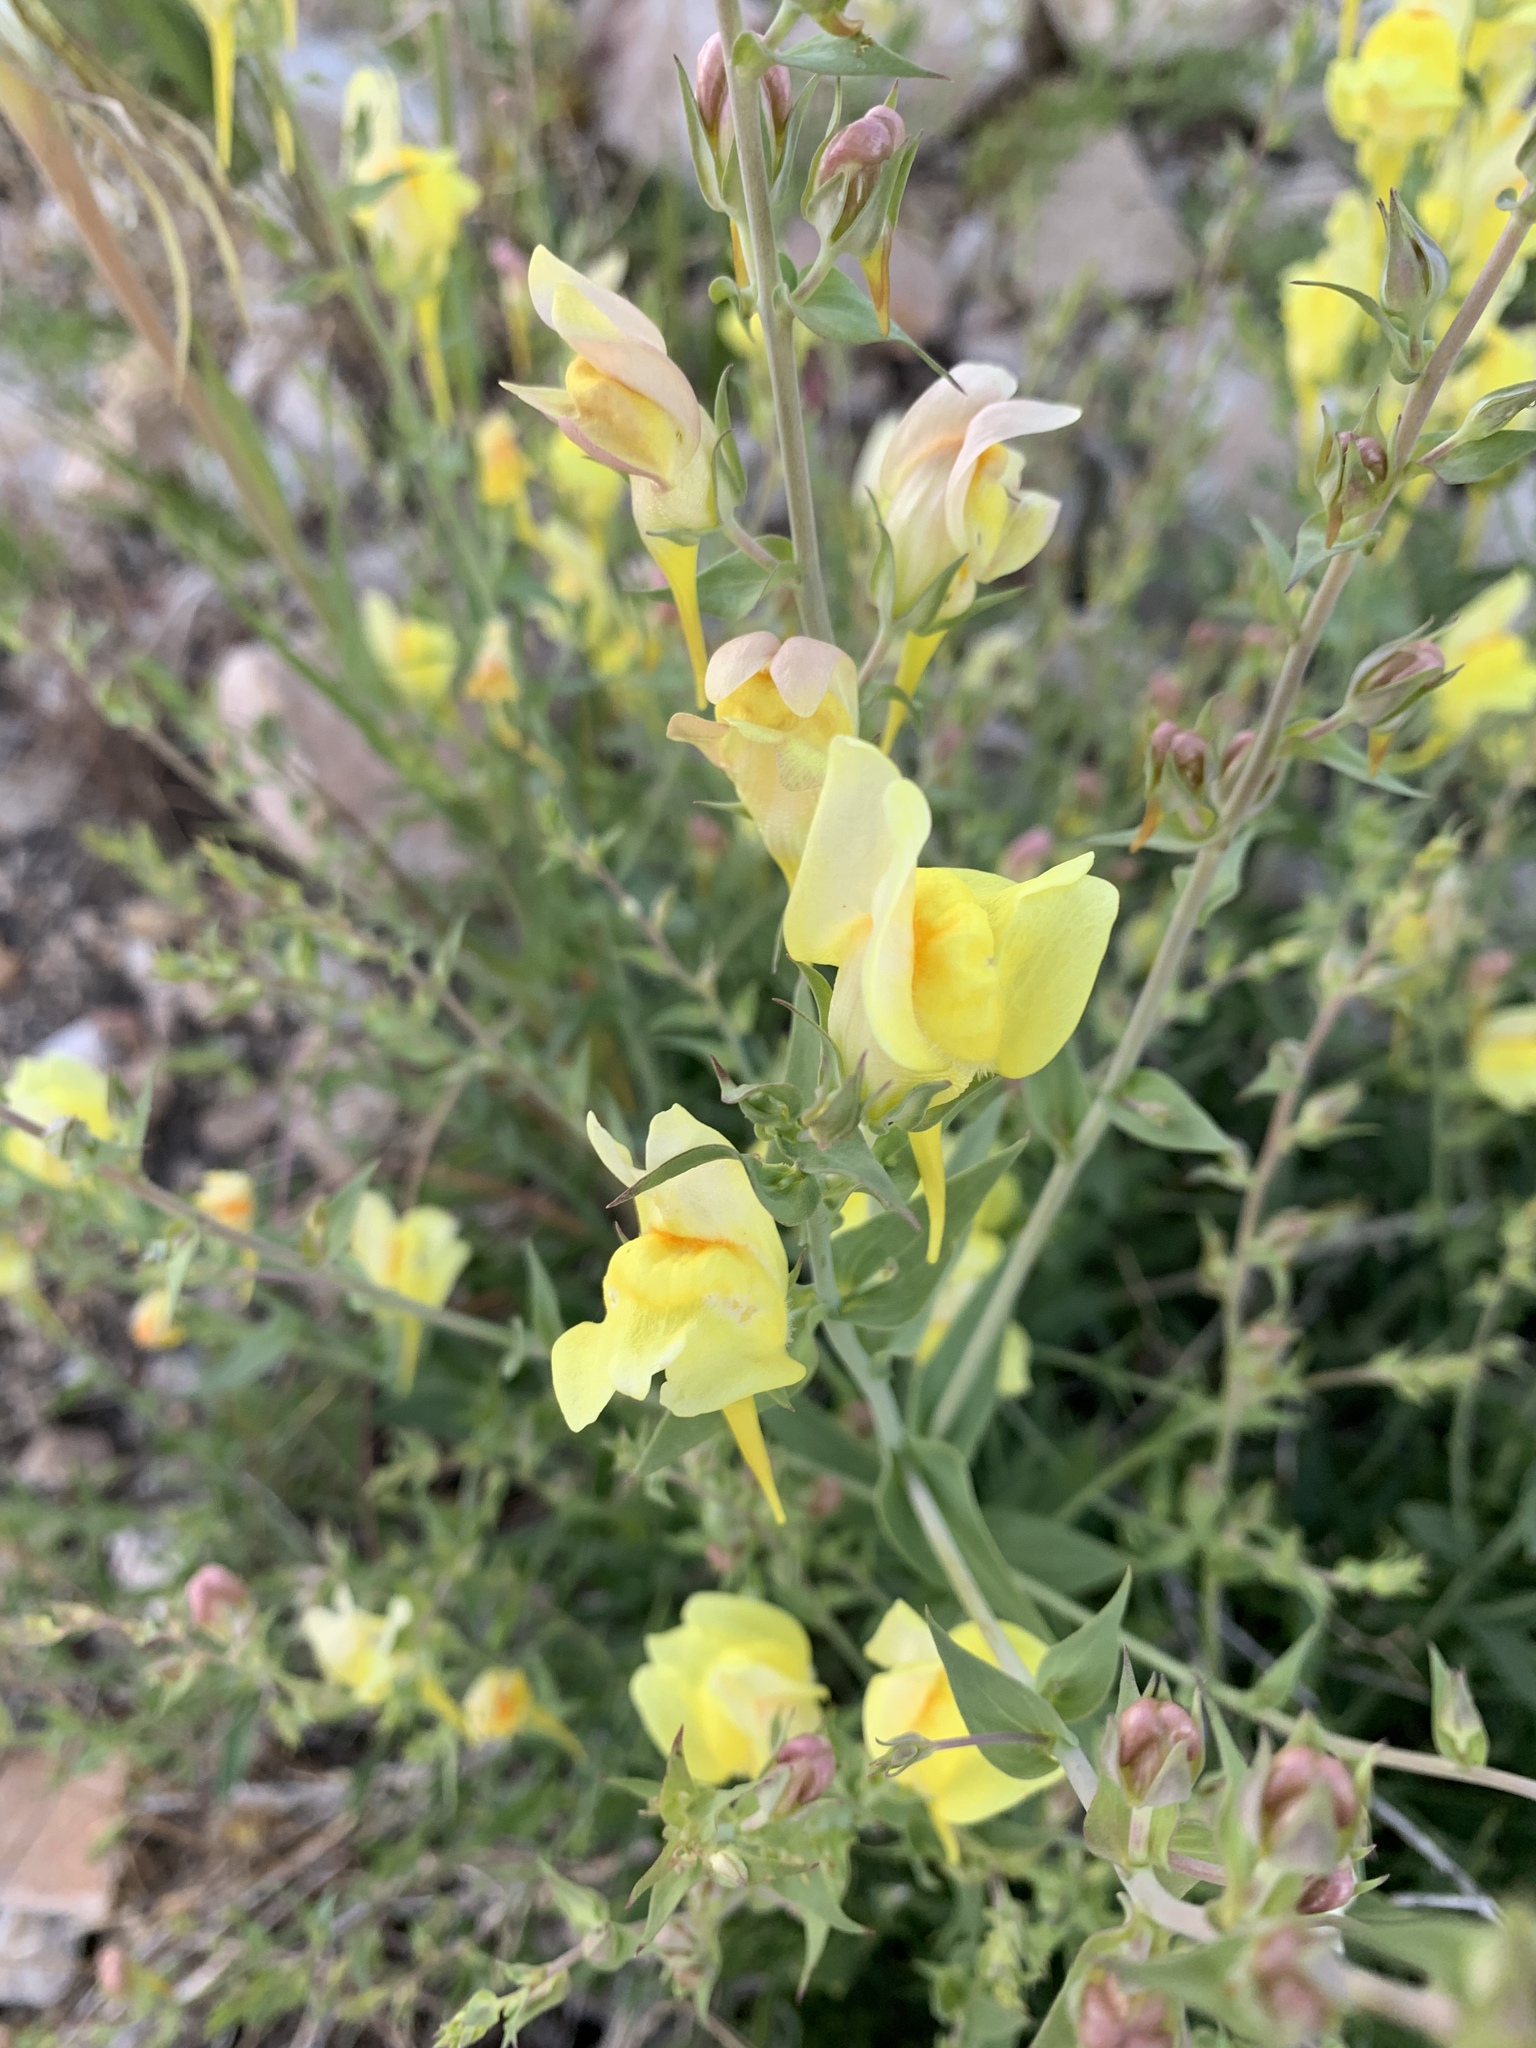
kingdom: Plantae
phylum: Tracheophyta
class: Magnoliopsida
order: Lamiales
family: Plantaginaceae
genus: Linaria
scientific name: Linaria dalmatica
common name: Dalmatian toadflax
